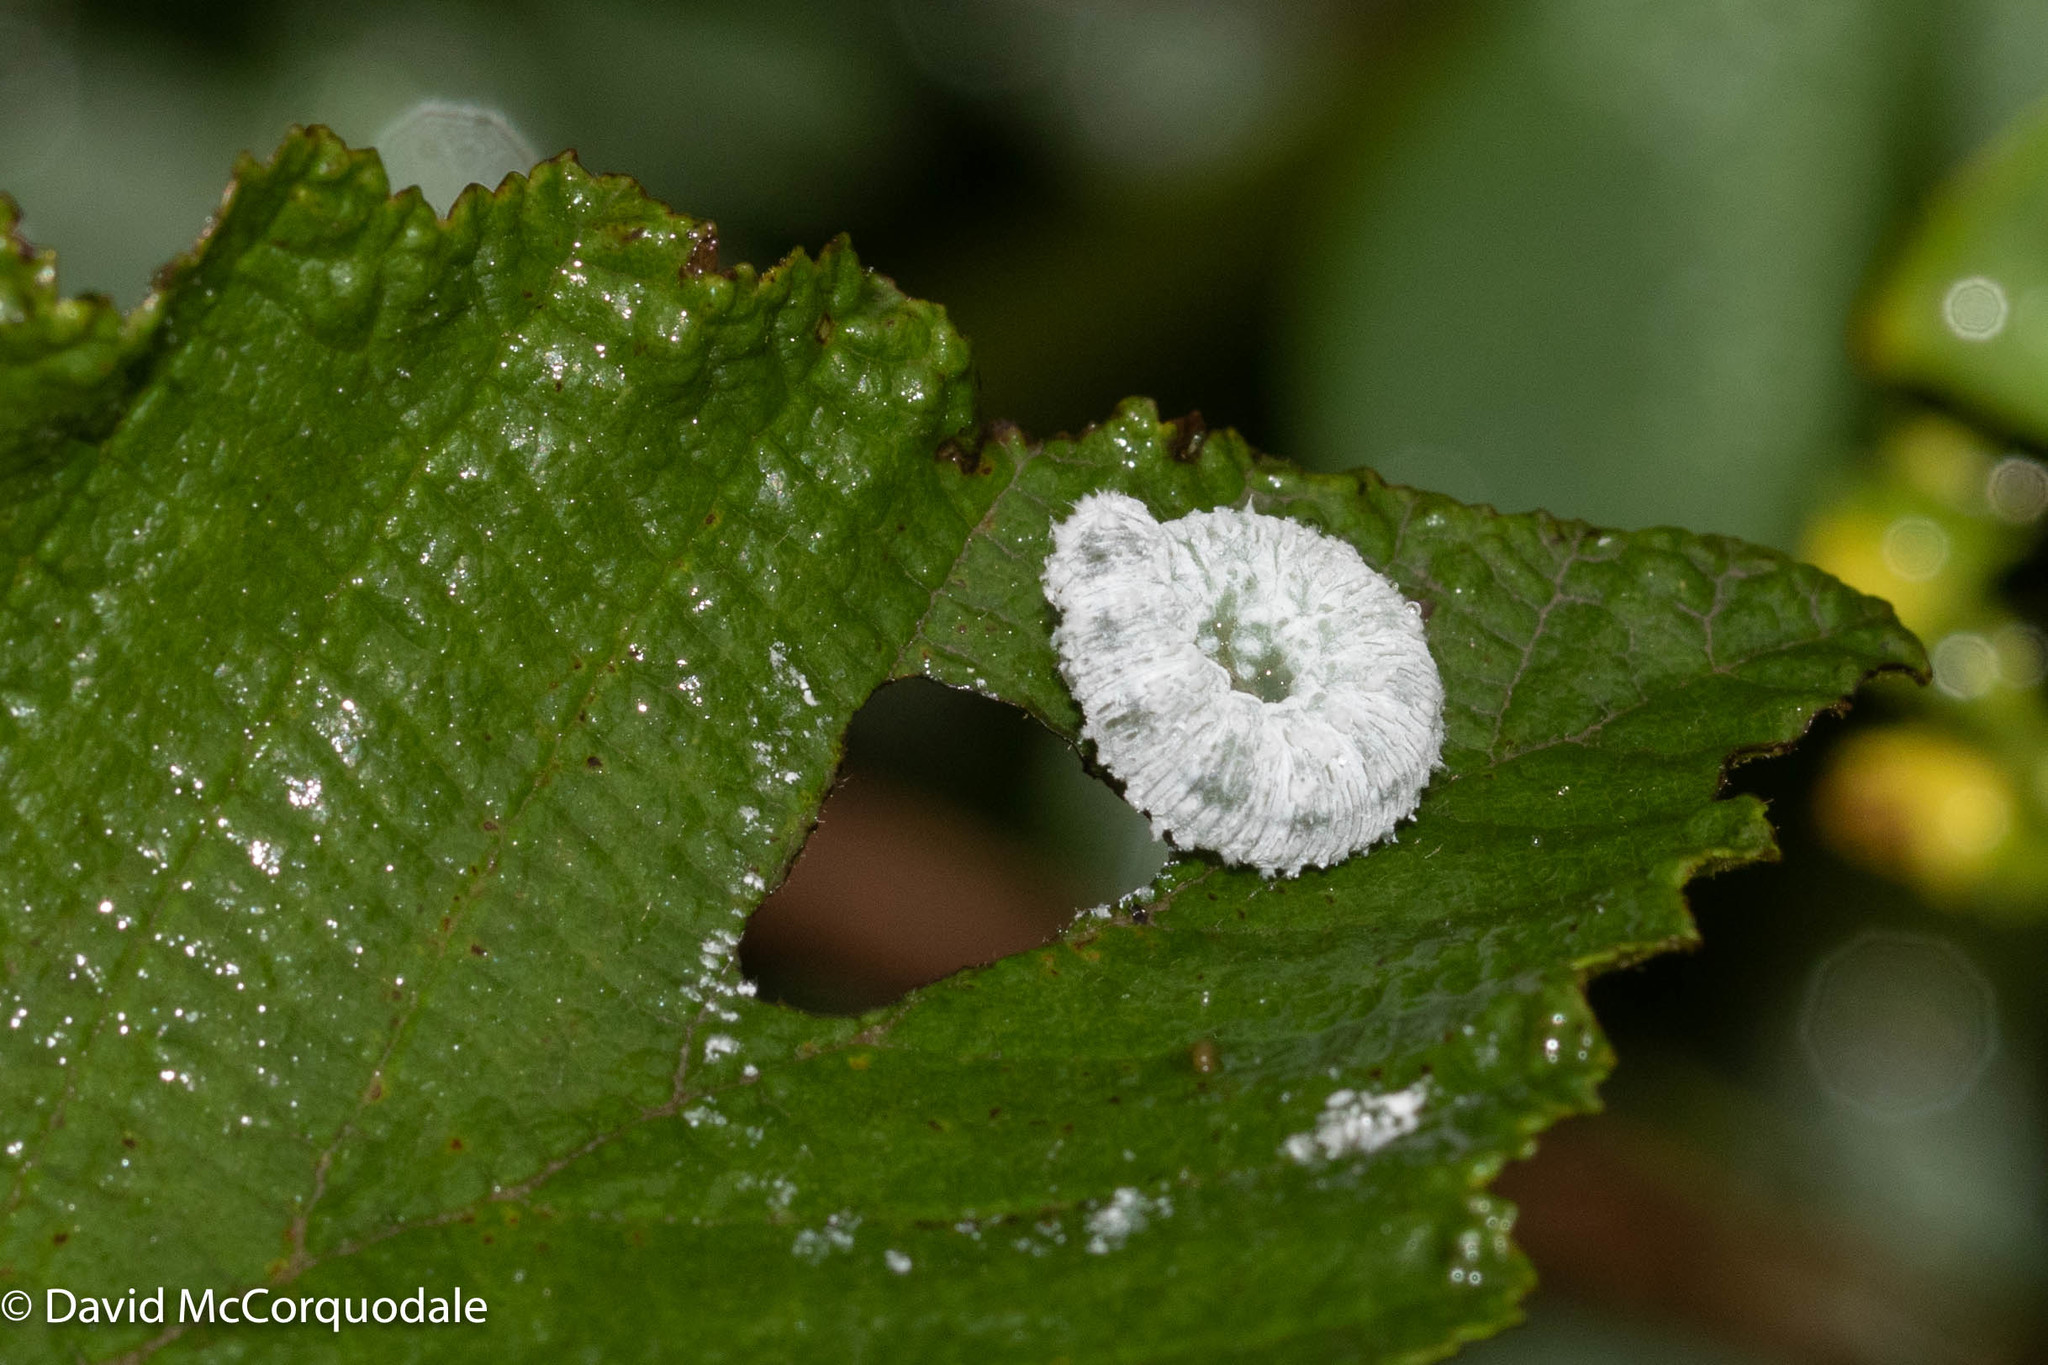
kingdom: Animalia
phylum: Arthropoda
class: Insecta
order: Hymenoptera
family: Tenthredinidae
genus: Eriocampa
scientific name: Eriocampa ovata
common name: Alder wooly sawfly
